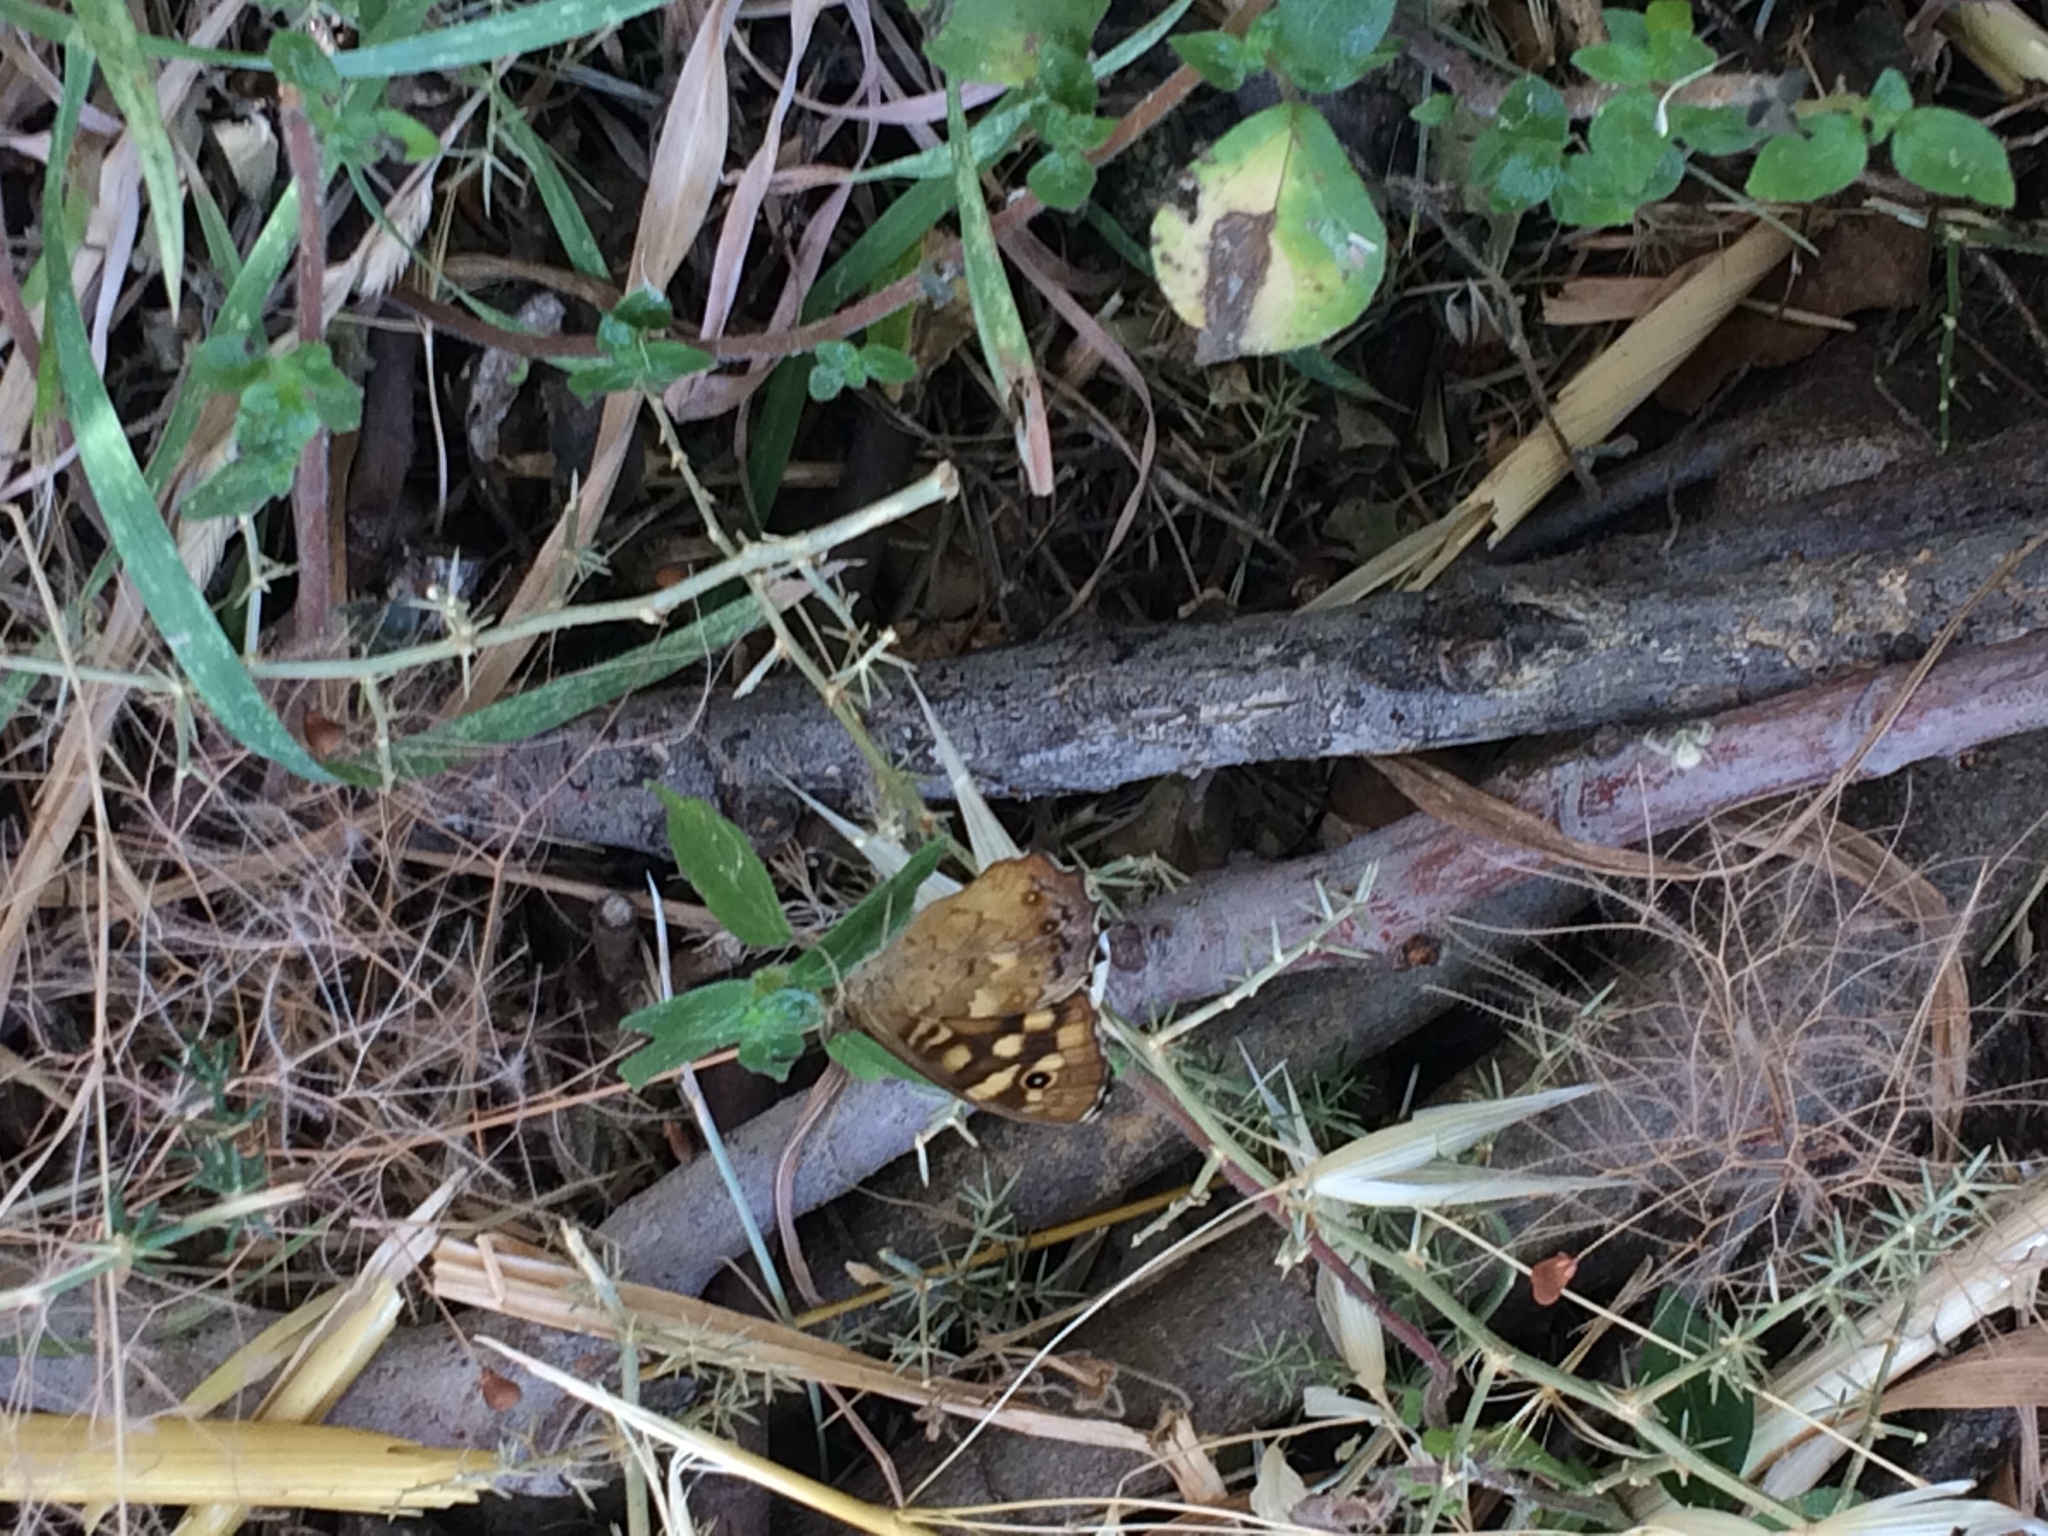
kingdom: Animalia
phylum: Arthropoda
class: Insecta
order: Lepidoptera
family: Nymphalidae
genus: Pararge
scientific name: Pararge aegeria
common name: Speckled wood
